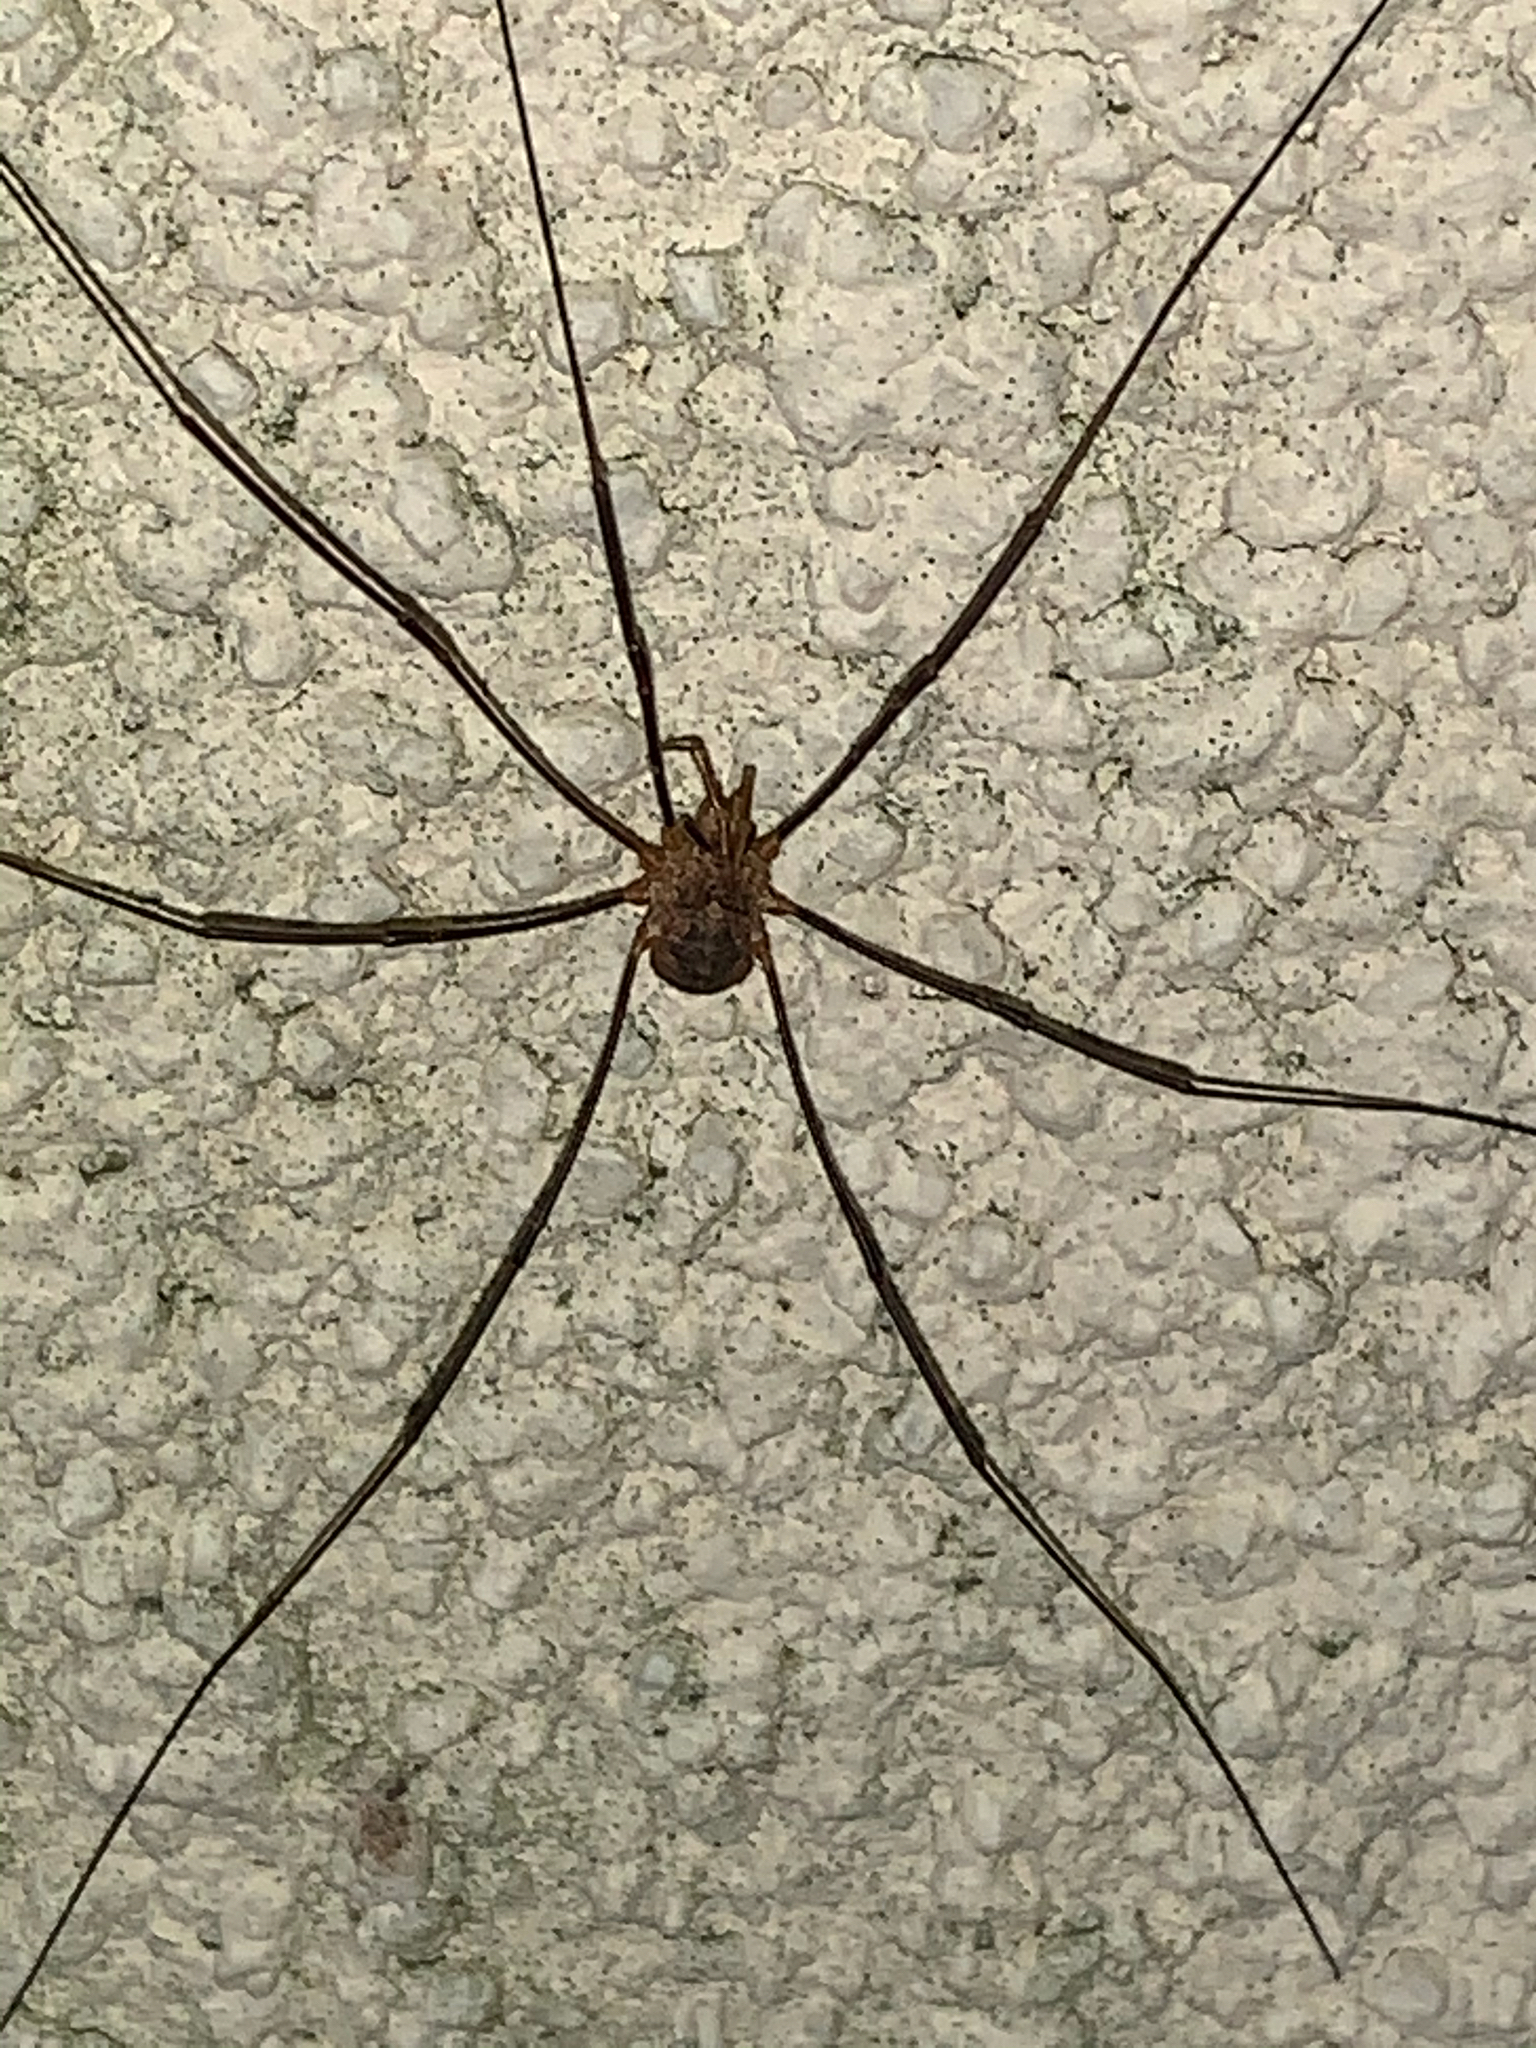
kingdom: Animalia
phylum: Arthropoda
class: Arachnida
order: Opiliones
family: Phalangiidae
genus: Phalangium
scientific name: Phalangium opilio
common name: Daddy longleg
